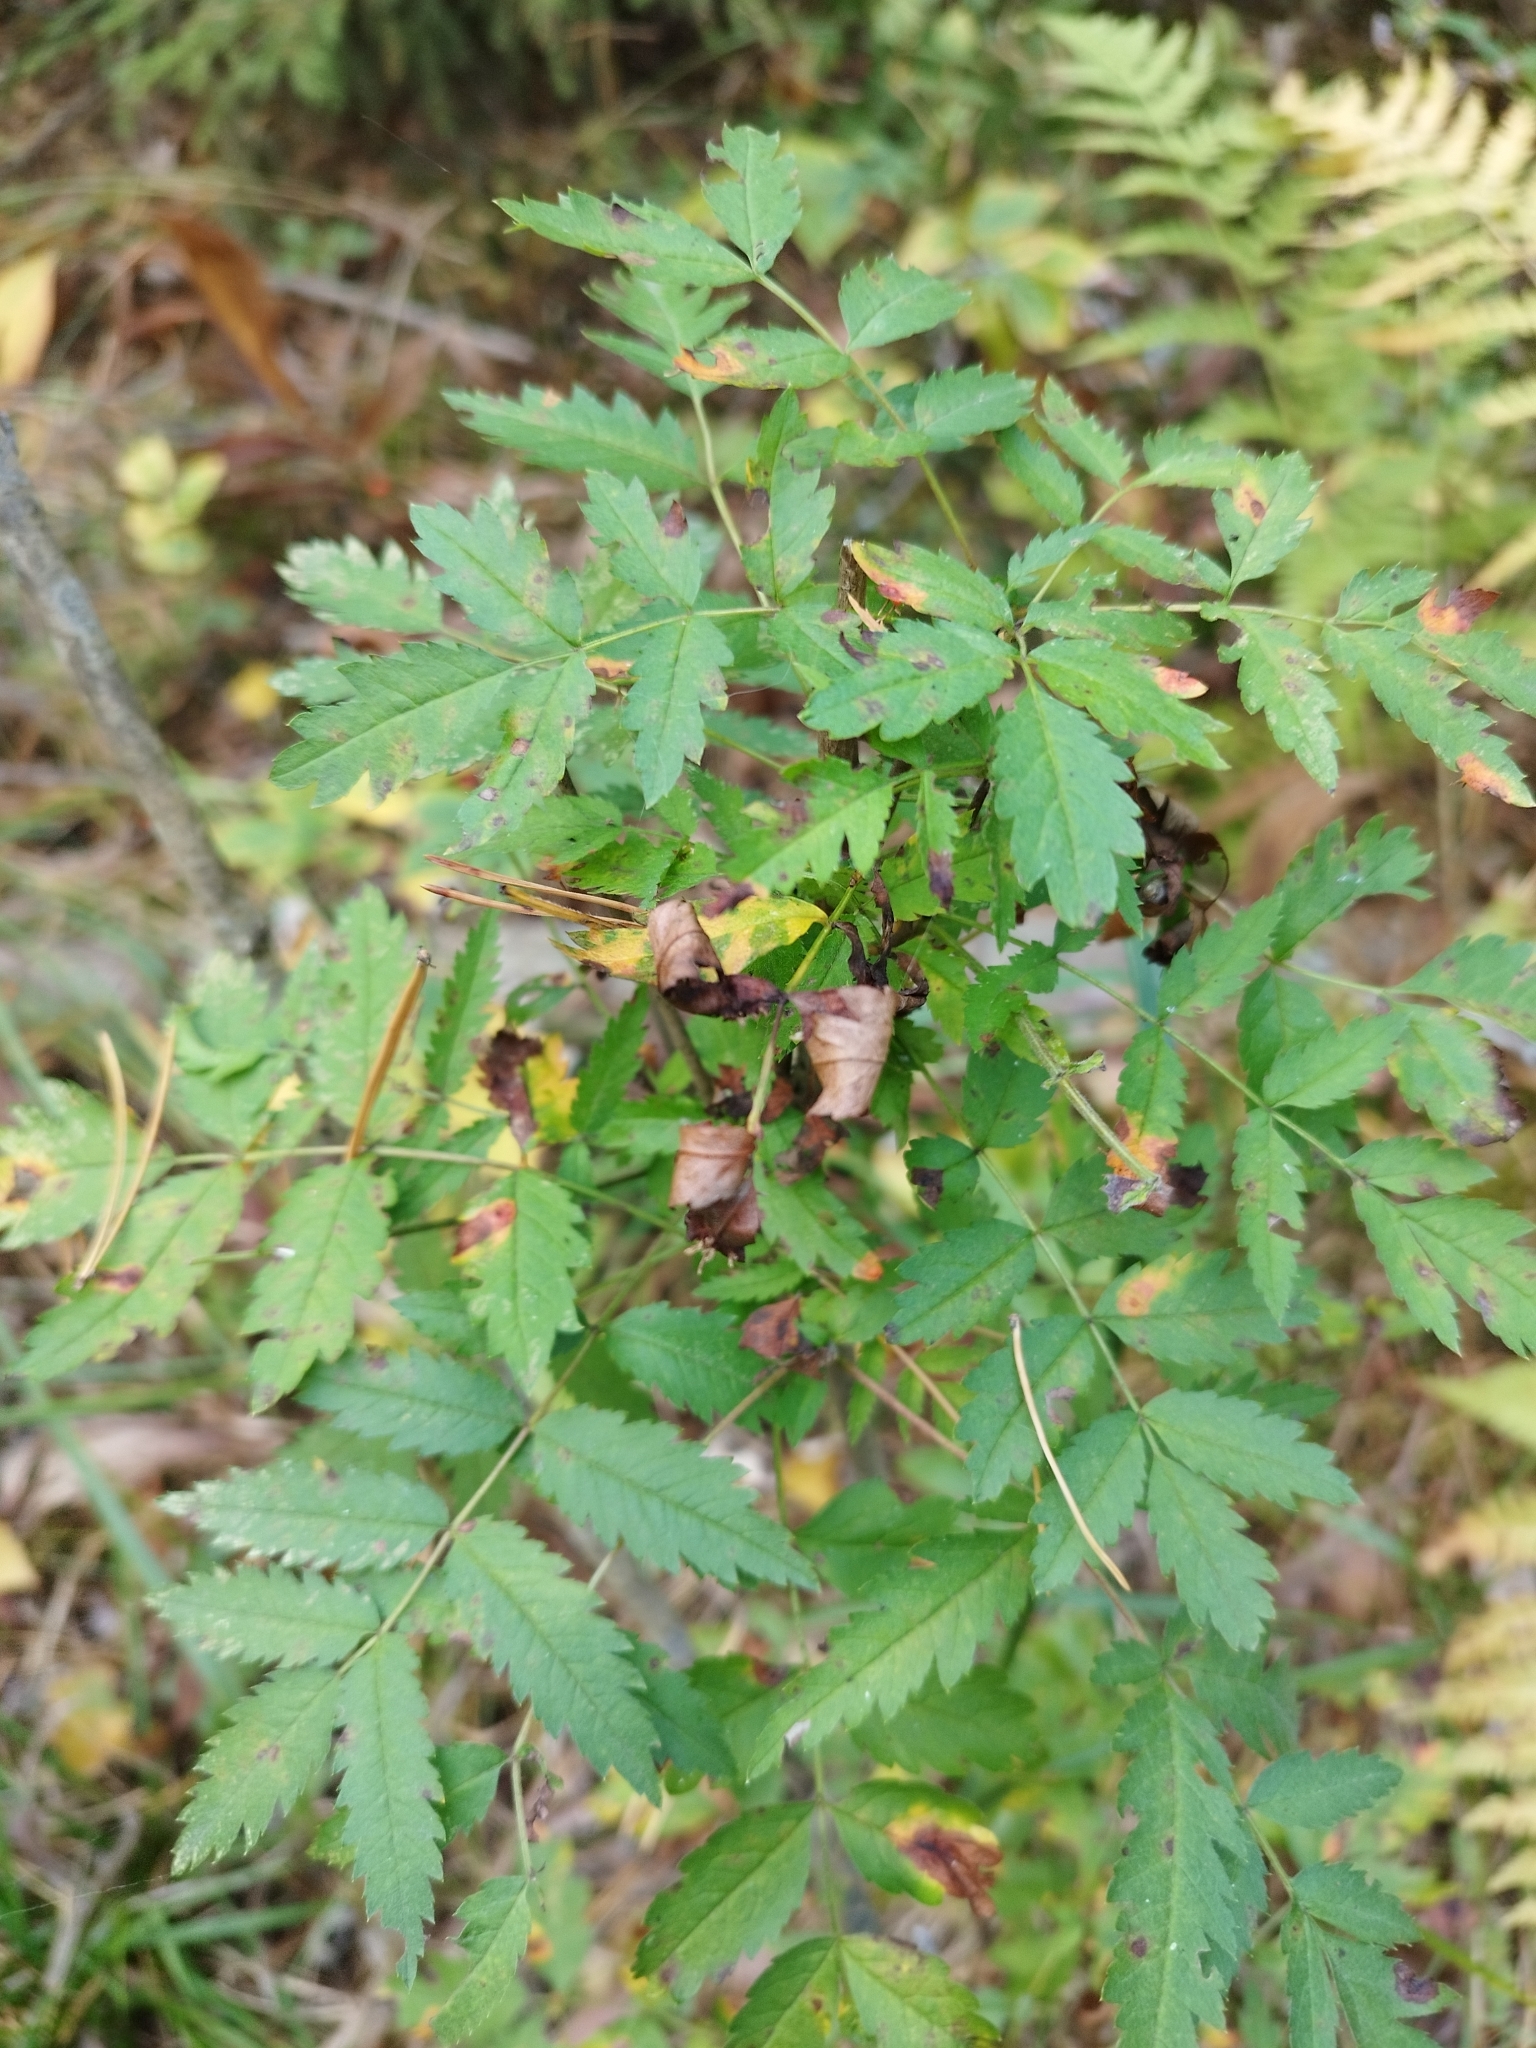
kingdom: Plantae
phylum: Tracheophyta
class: Magnoliopsida
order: Rosales
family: Rosaceae
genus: Sorbus
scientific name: Sorbus aucuparia
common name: Rowan
